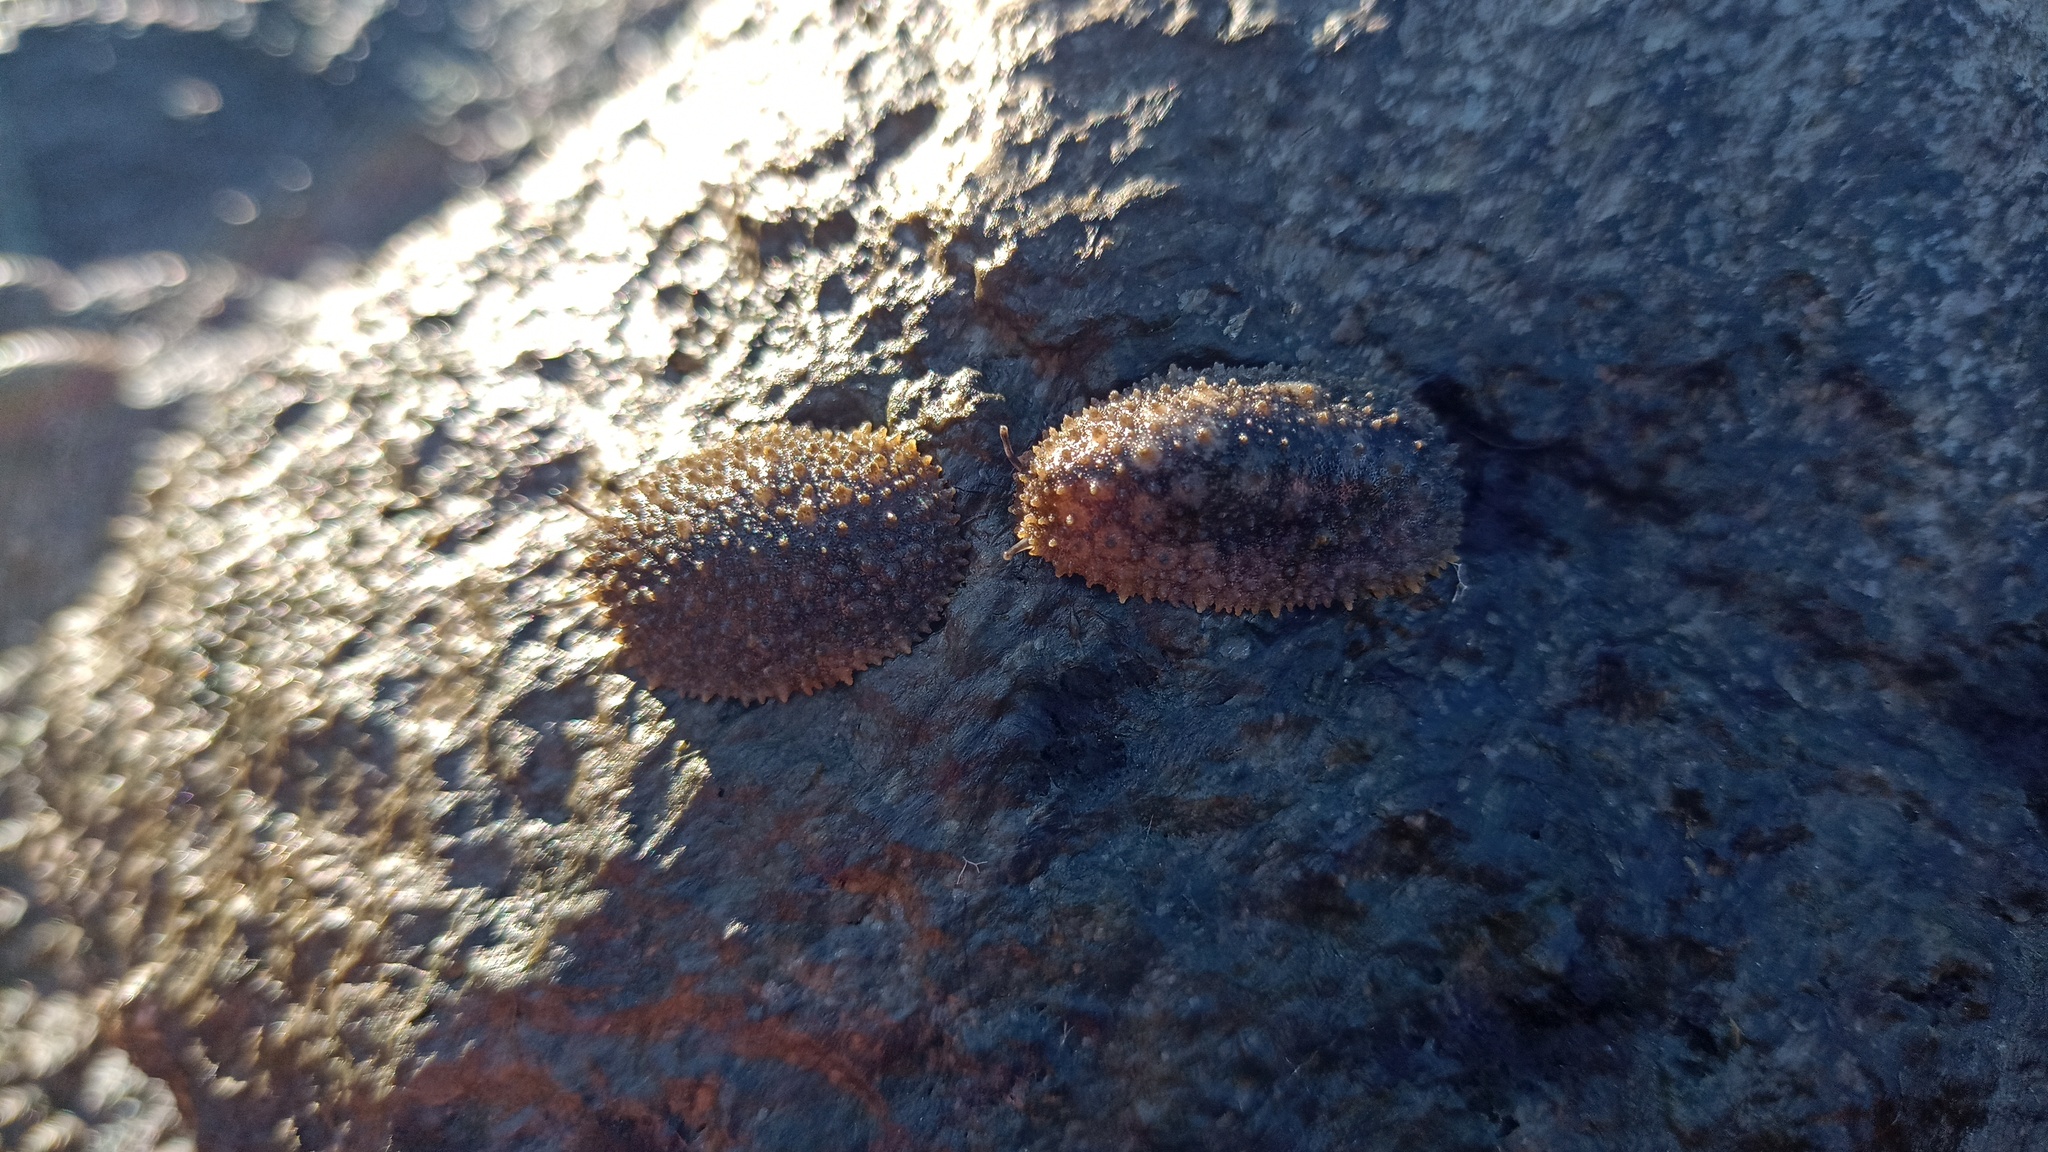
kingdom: Animalia
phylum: Mollusca
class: Gastropoda
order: Systellommatophora
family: Onchidiidae
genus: Onchidella
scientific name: Onchidella incisa
